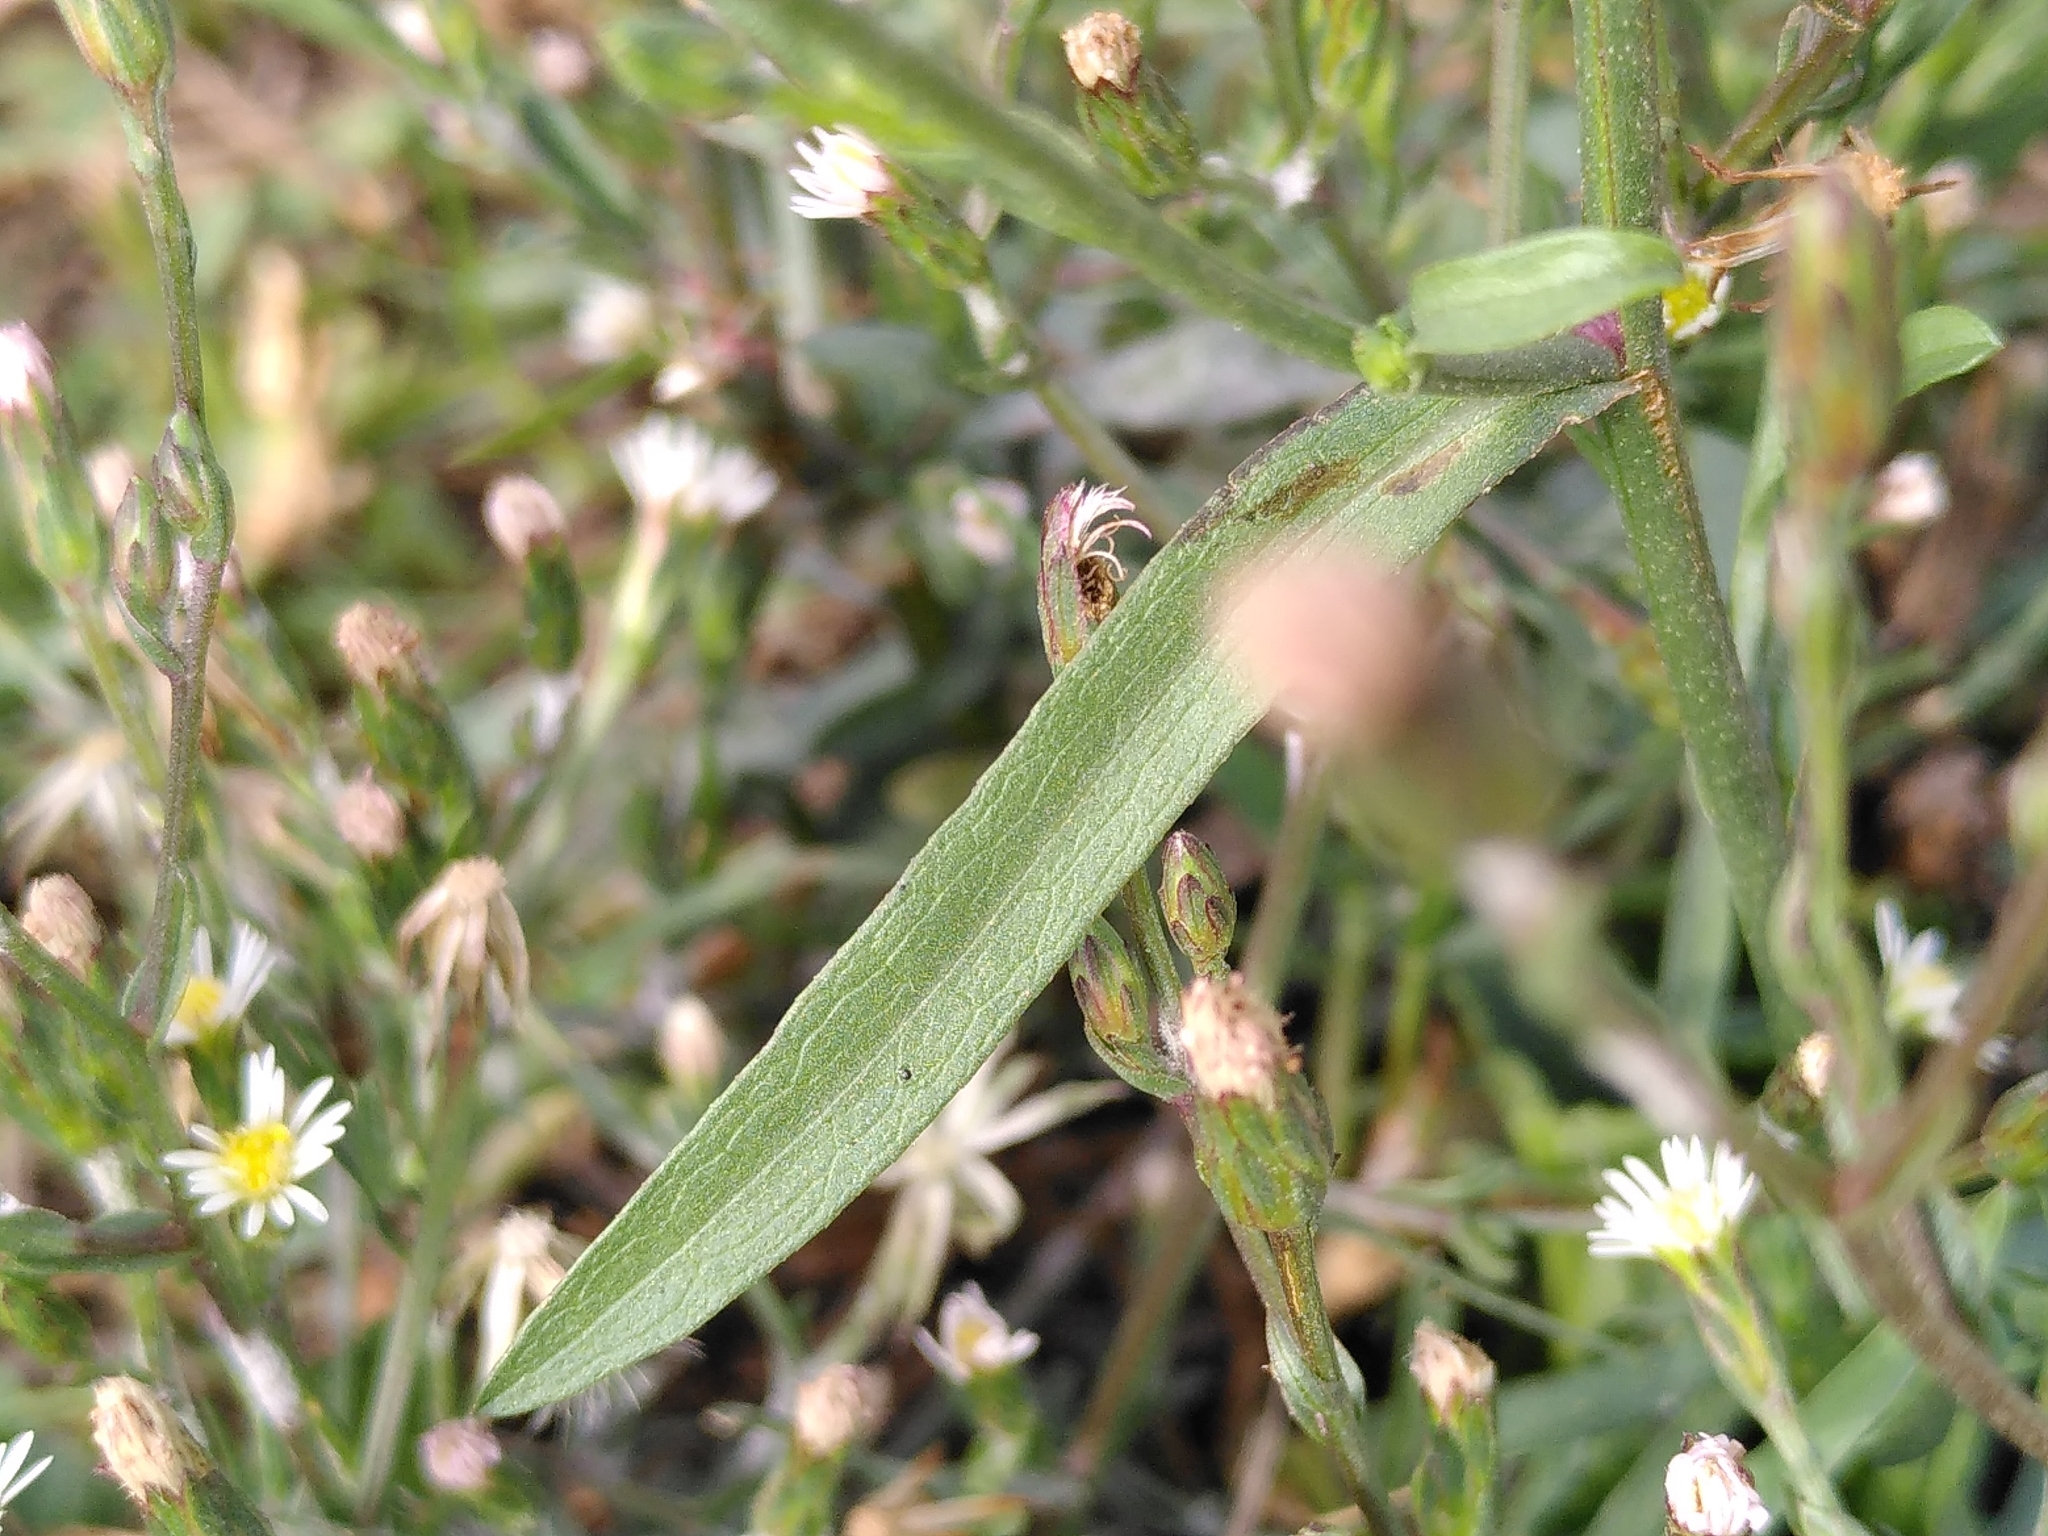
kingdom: Plantae
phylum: Tracheophyta
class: Magnoliopsida
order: Asterales
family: Asteraceae
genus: Symphyotrichum
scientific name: Symphyotrichum squamatum
